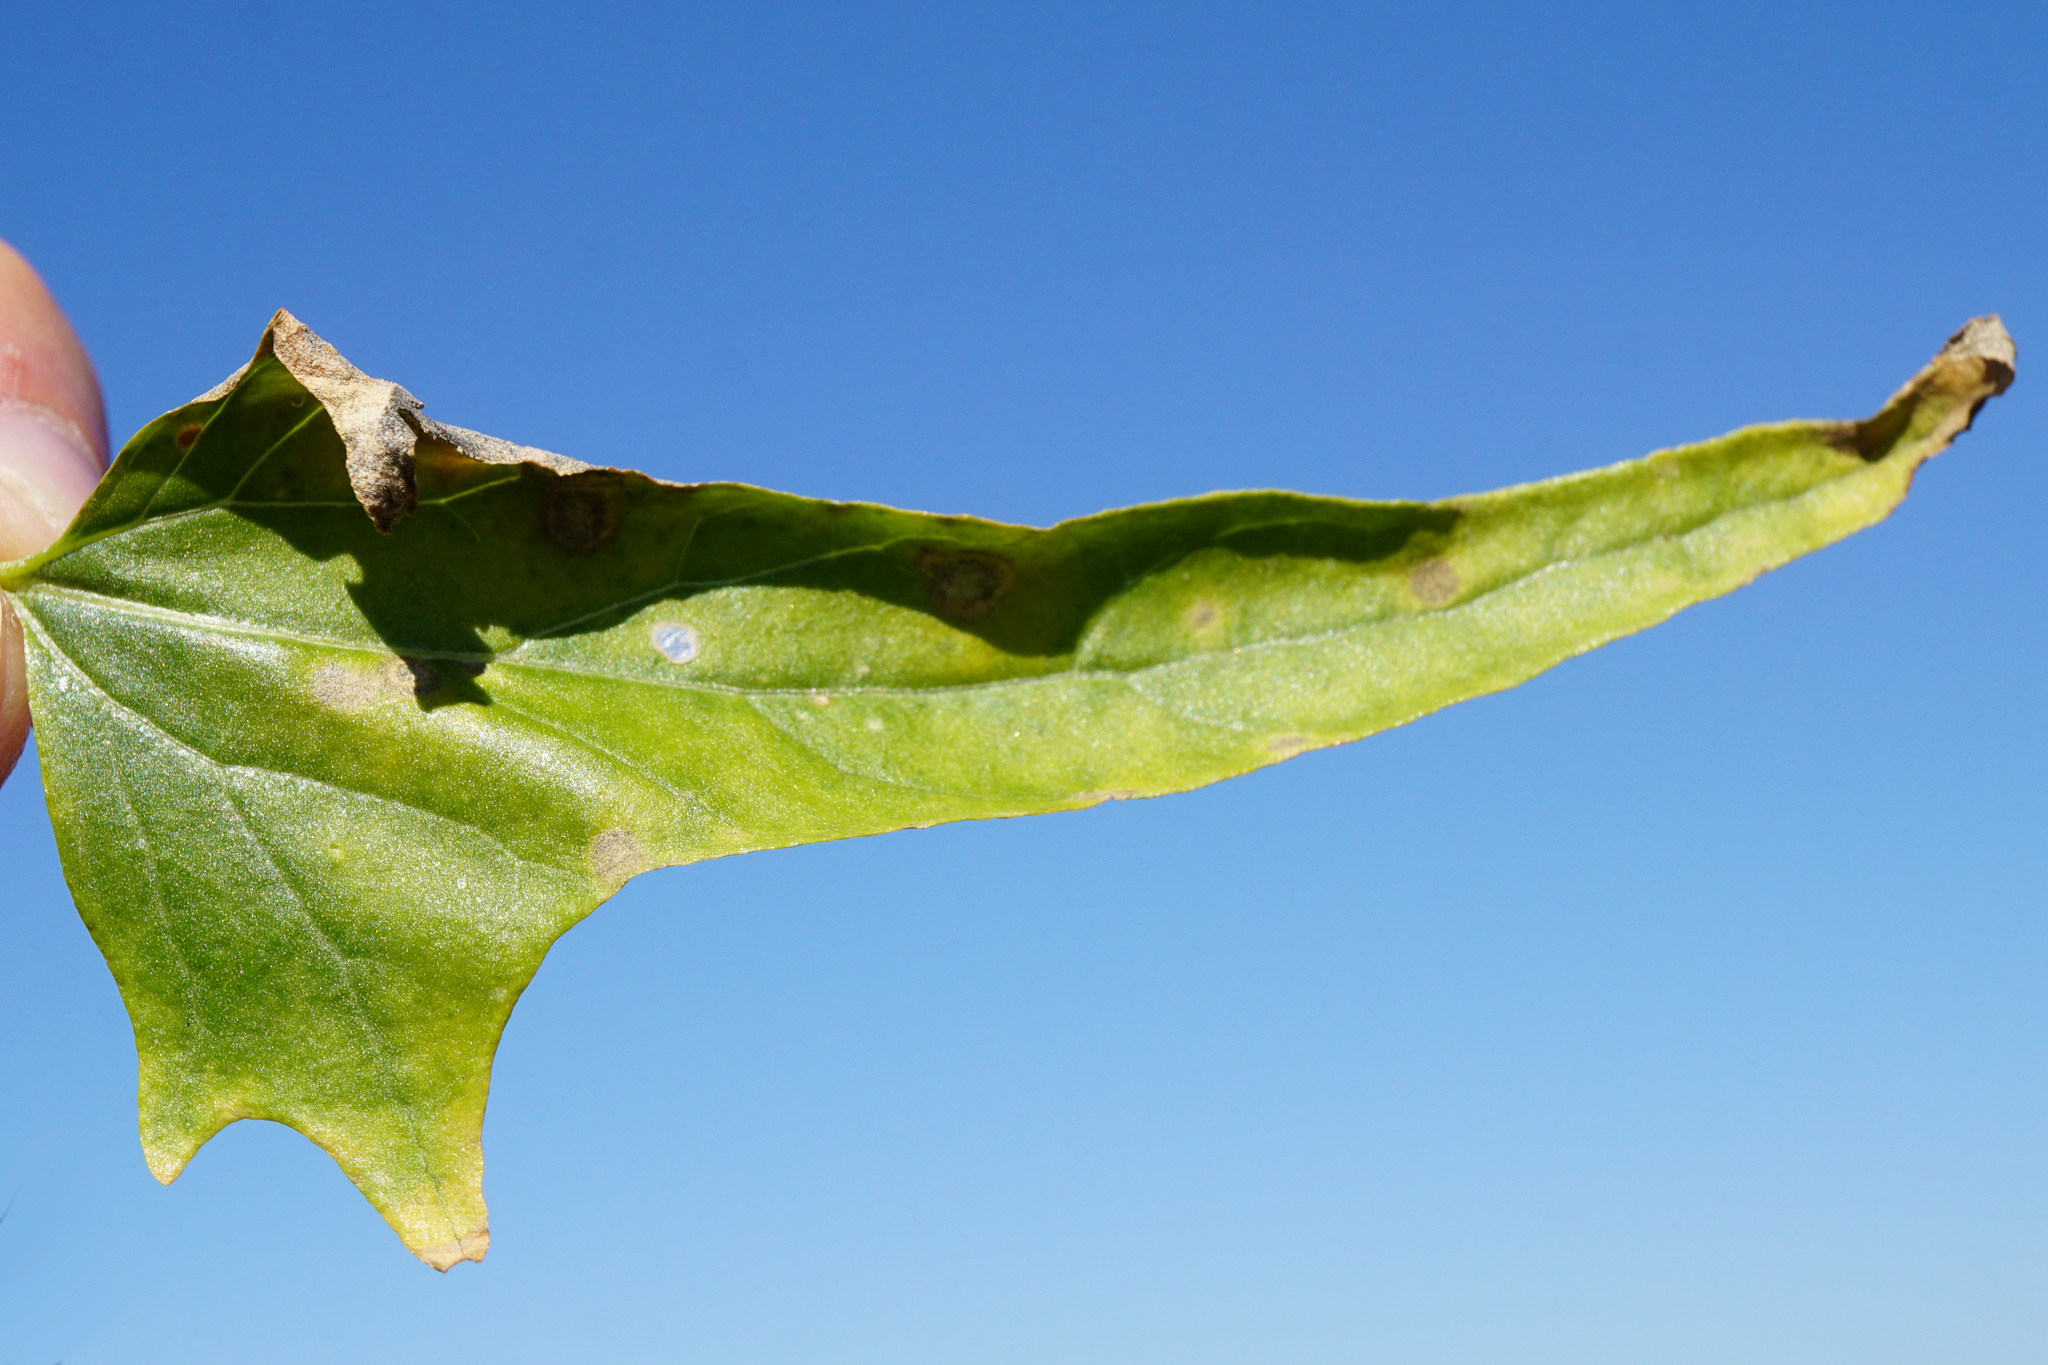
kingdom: Plantae
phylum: Tracheophyta
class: Magnoliopsida
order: Caryophyllales
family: Amaranthaceae
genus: Atriplex
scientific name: Atriplex sagittata
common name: Purple orache
